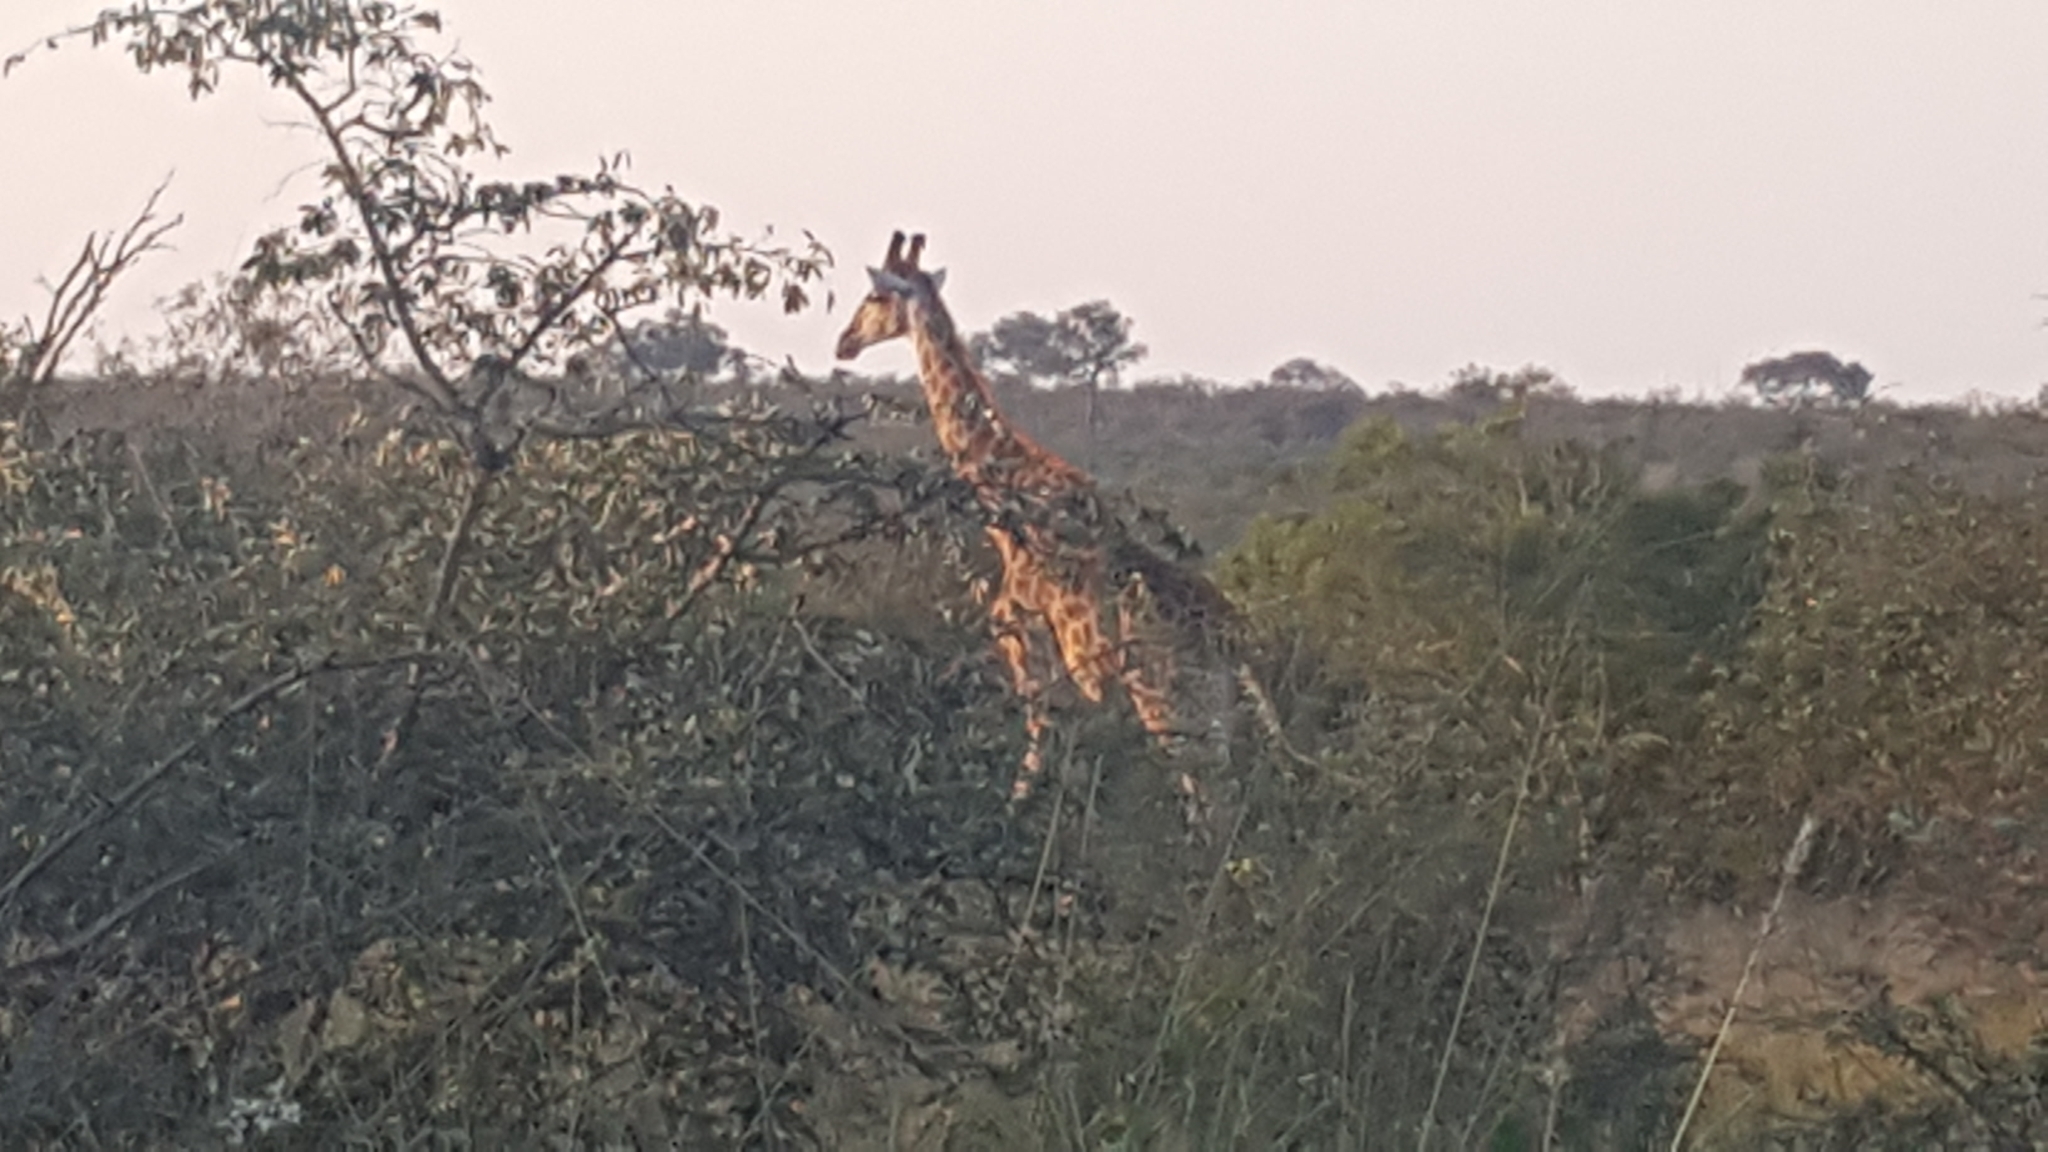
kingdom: Animalia
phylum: Chordata
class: Mammalia
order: Artiodactyla
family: Giraffidae
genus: Giraffa
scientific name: Giraffa giraffa
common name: Southern giraffe
